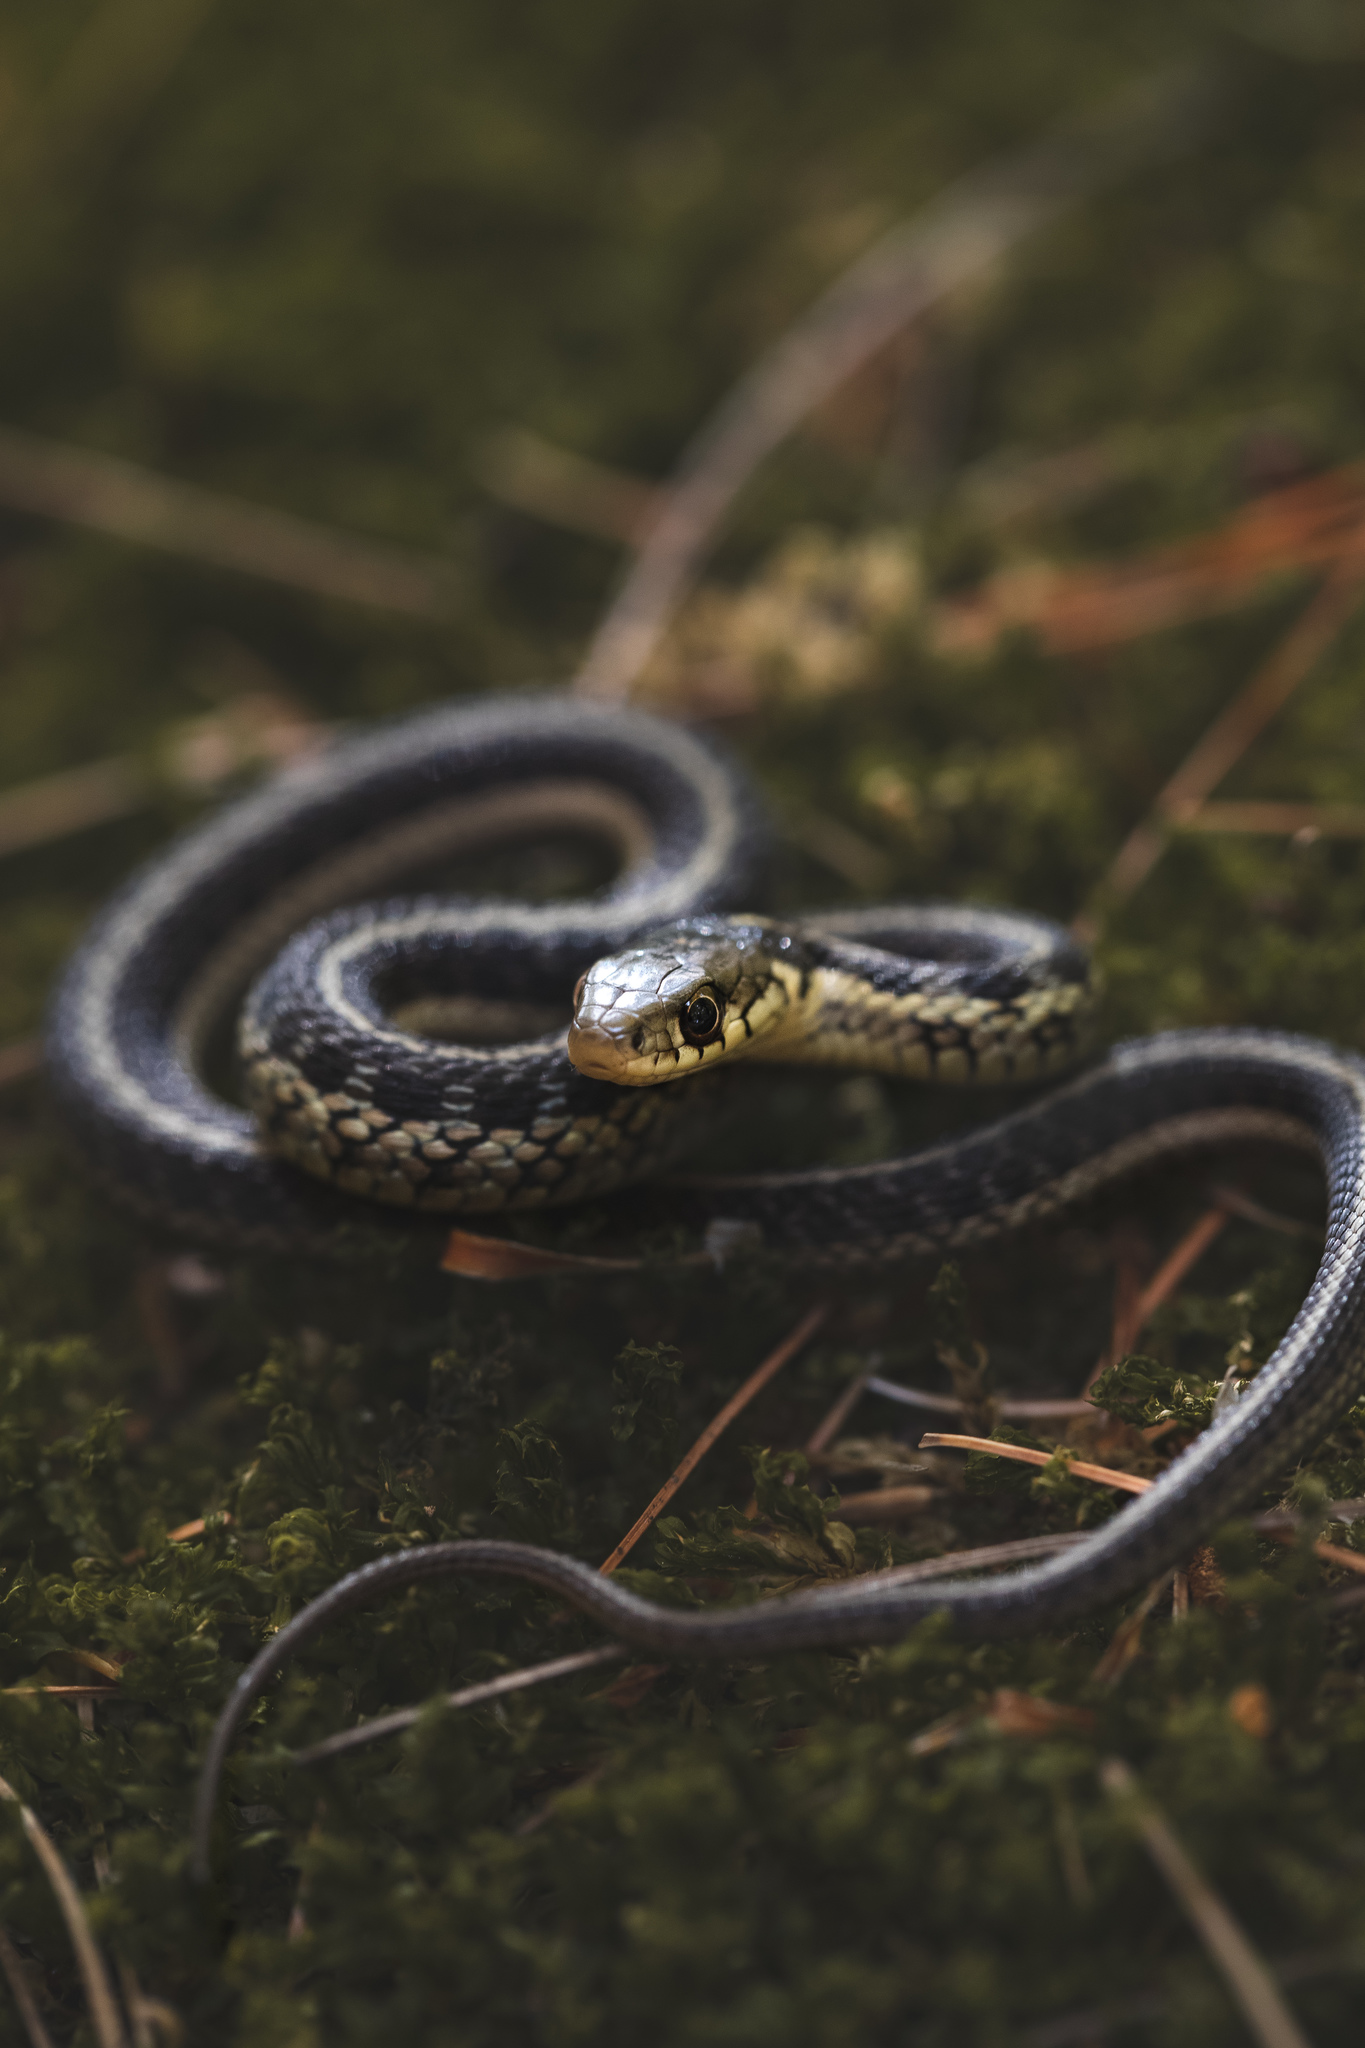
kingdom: Animalia
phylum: Chordata
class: Squamata
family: Colubridae
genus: Thamnophis
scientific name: Thamnophis sirtalis
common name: Common garter snake
